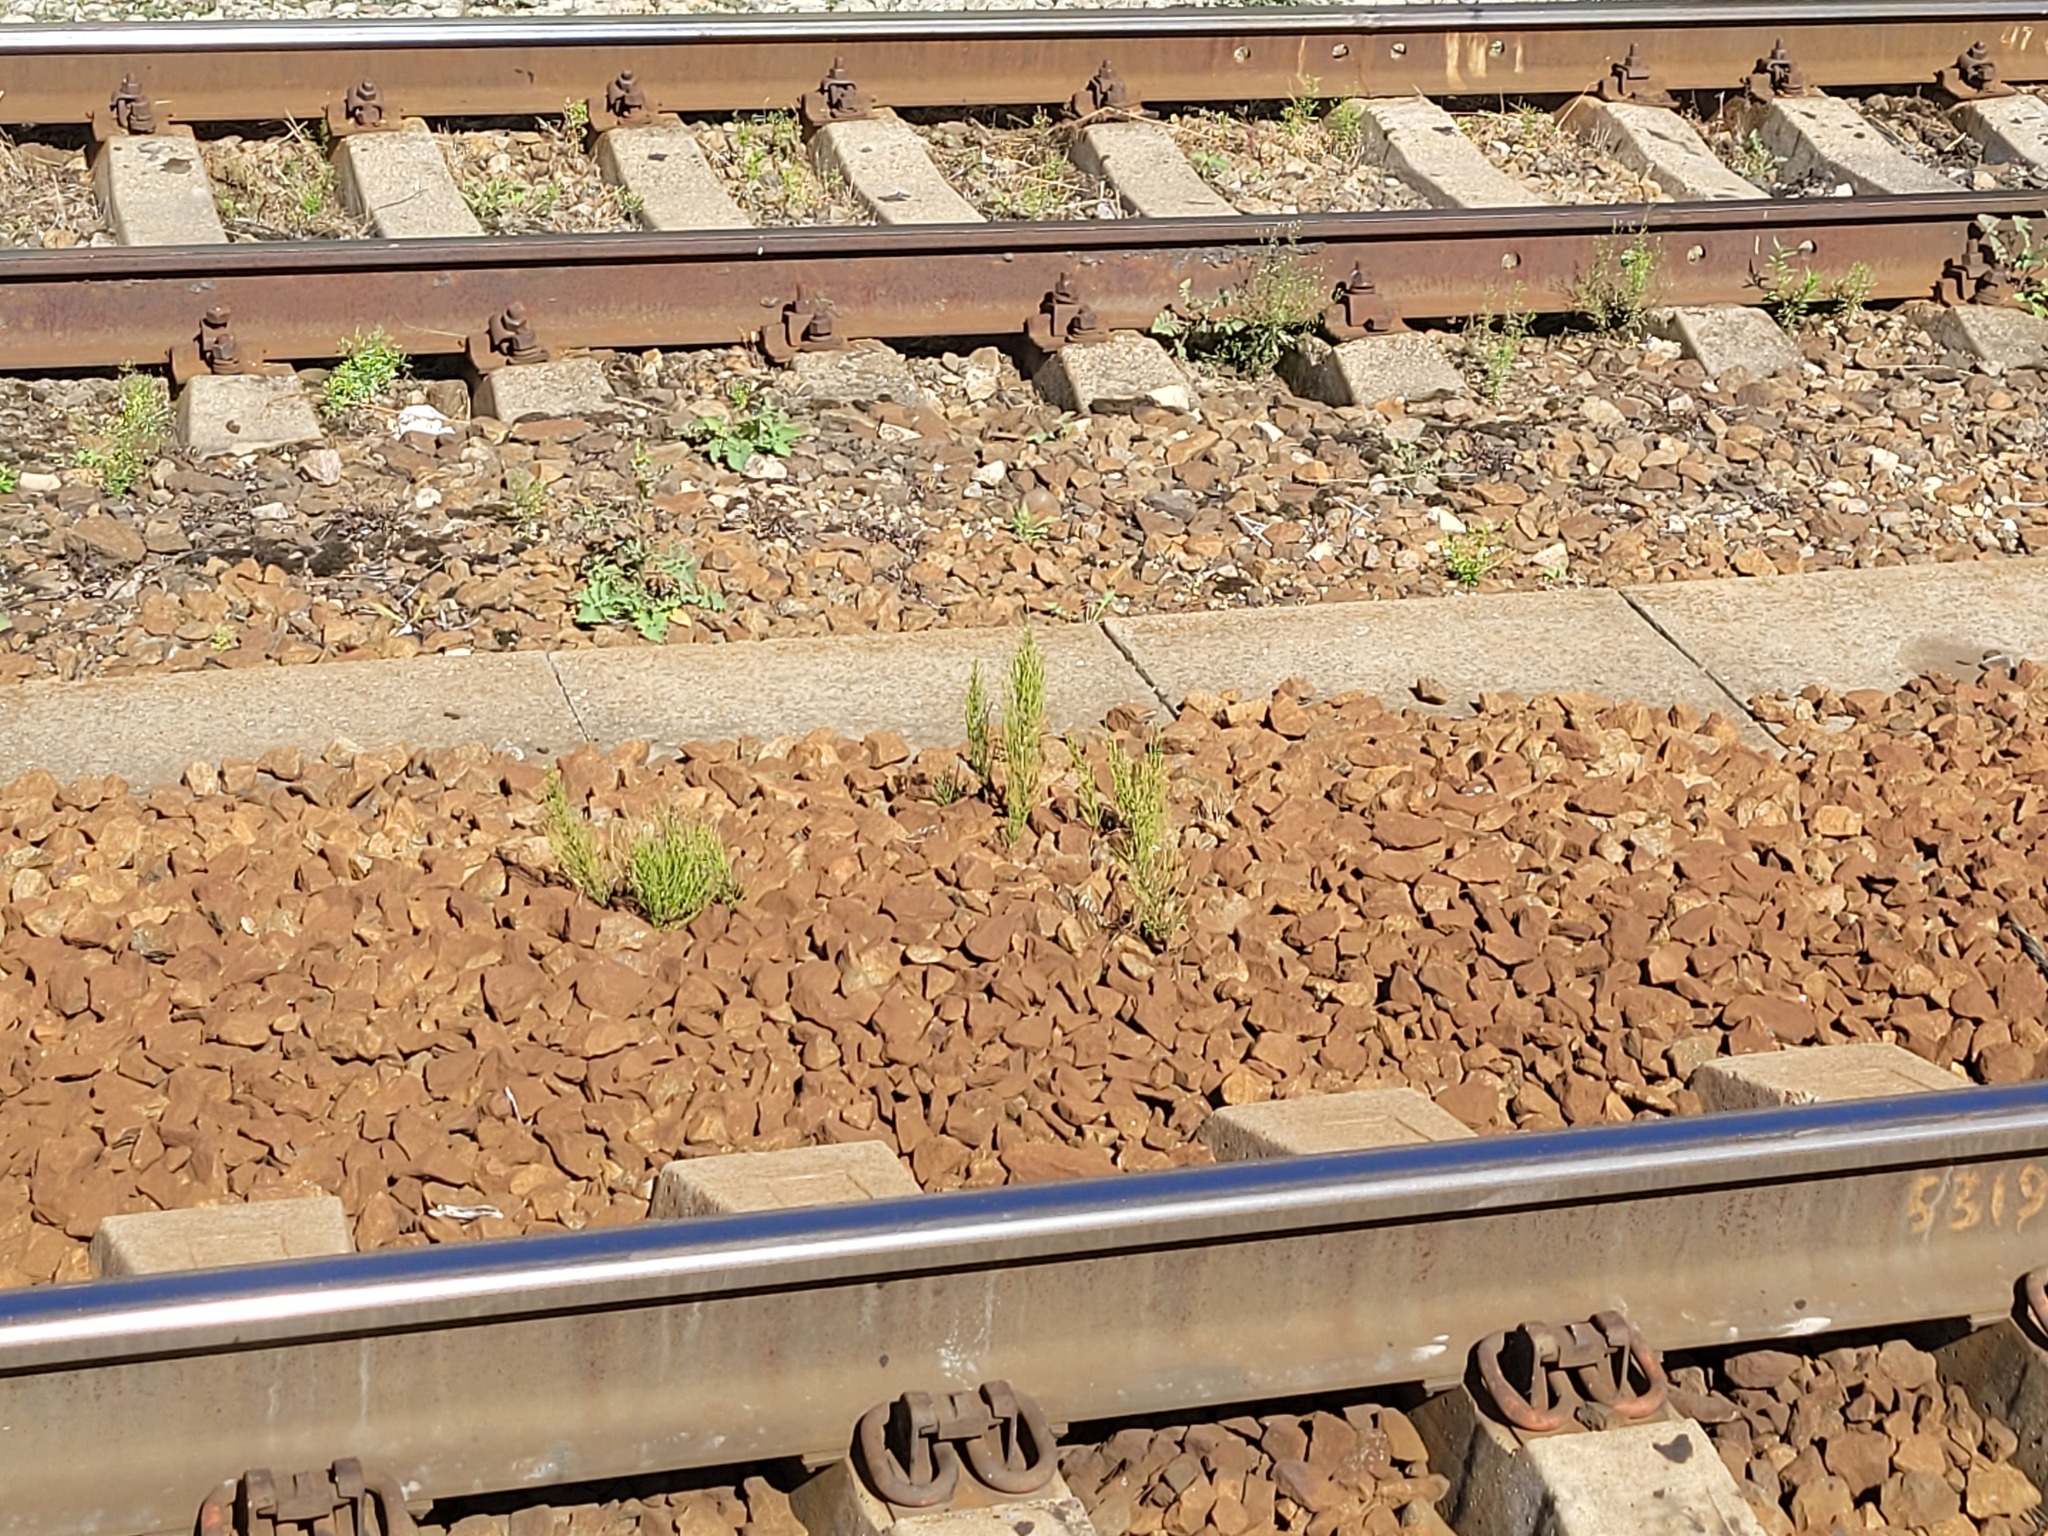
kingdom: Plantae
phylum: Tracheophyta
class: Polypodiopsida
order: Equisetales
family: Equisetaceae
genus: Equisetum
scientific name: Equisetum arvense
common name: Field horsetail
